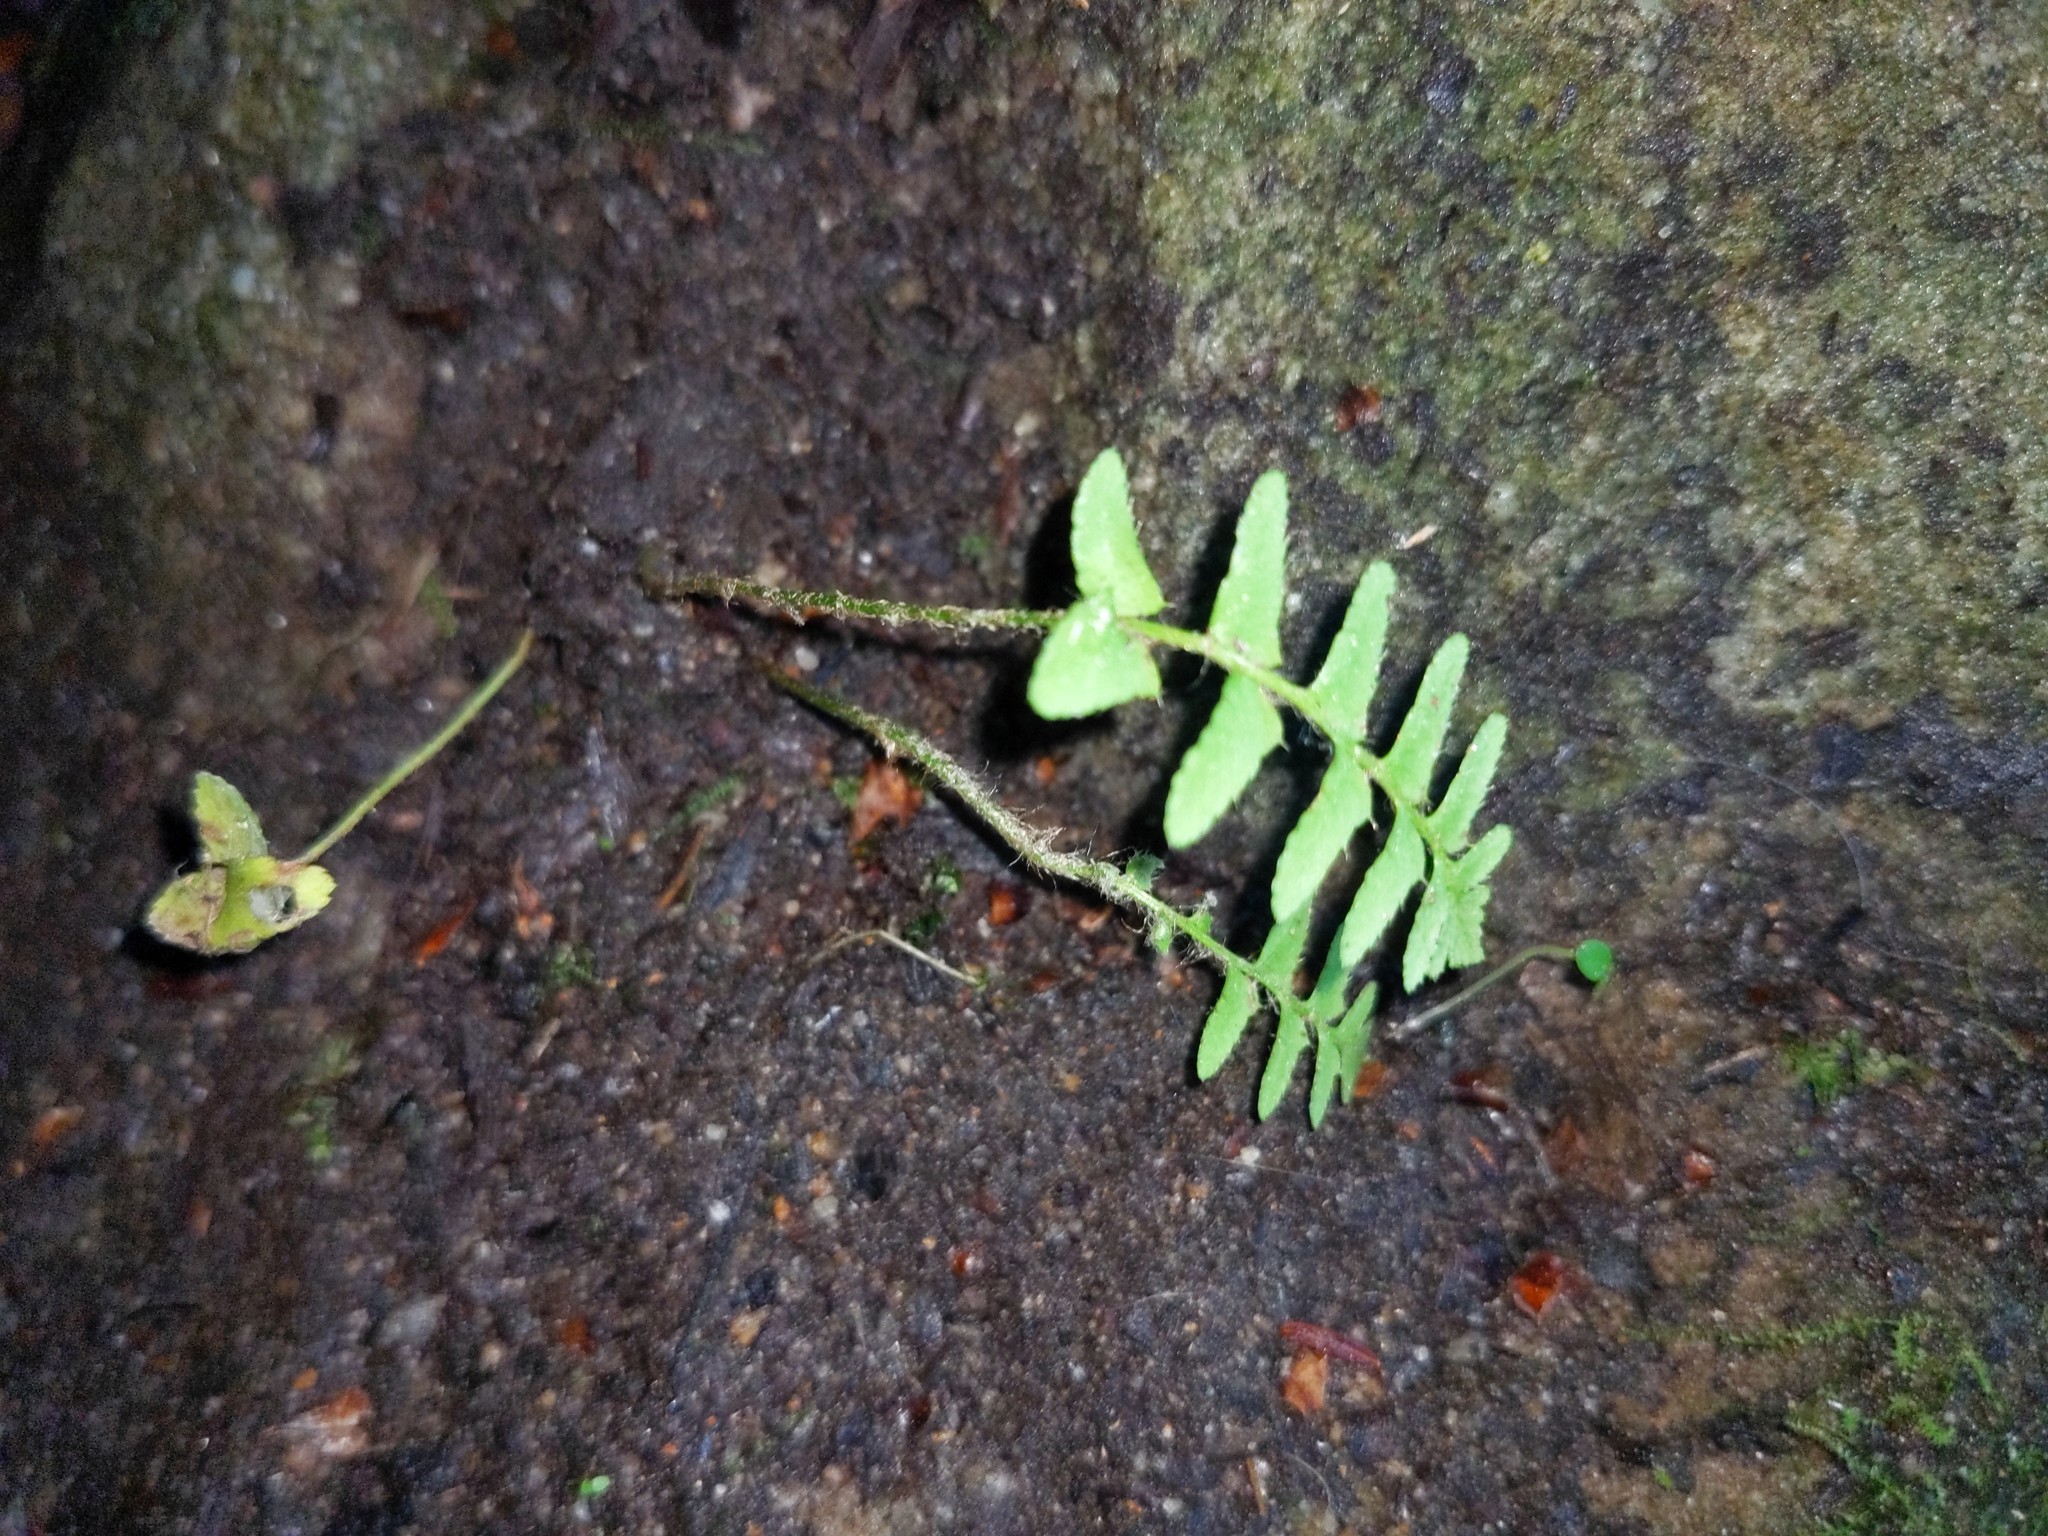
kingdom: Plantae
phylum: Tracheophyta
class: Polypodiopsida
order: Polypodiales
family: Dryopteridaceae
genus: Polystichum
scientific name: Polystichum acrostichoides
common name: Christmas fern
